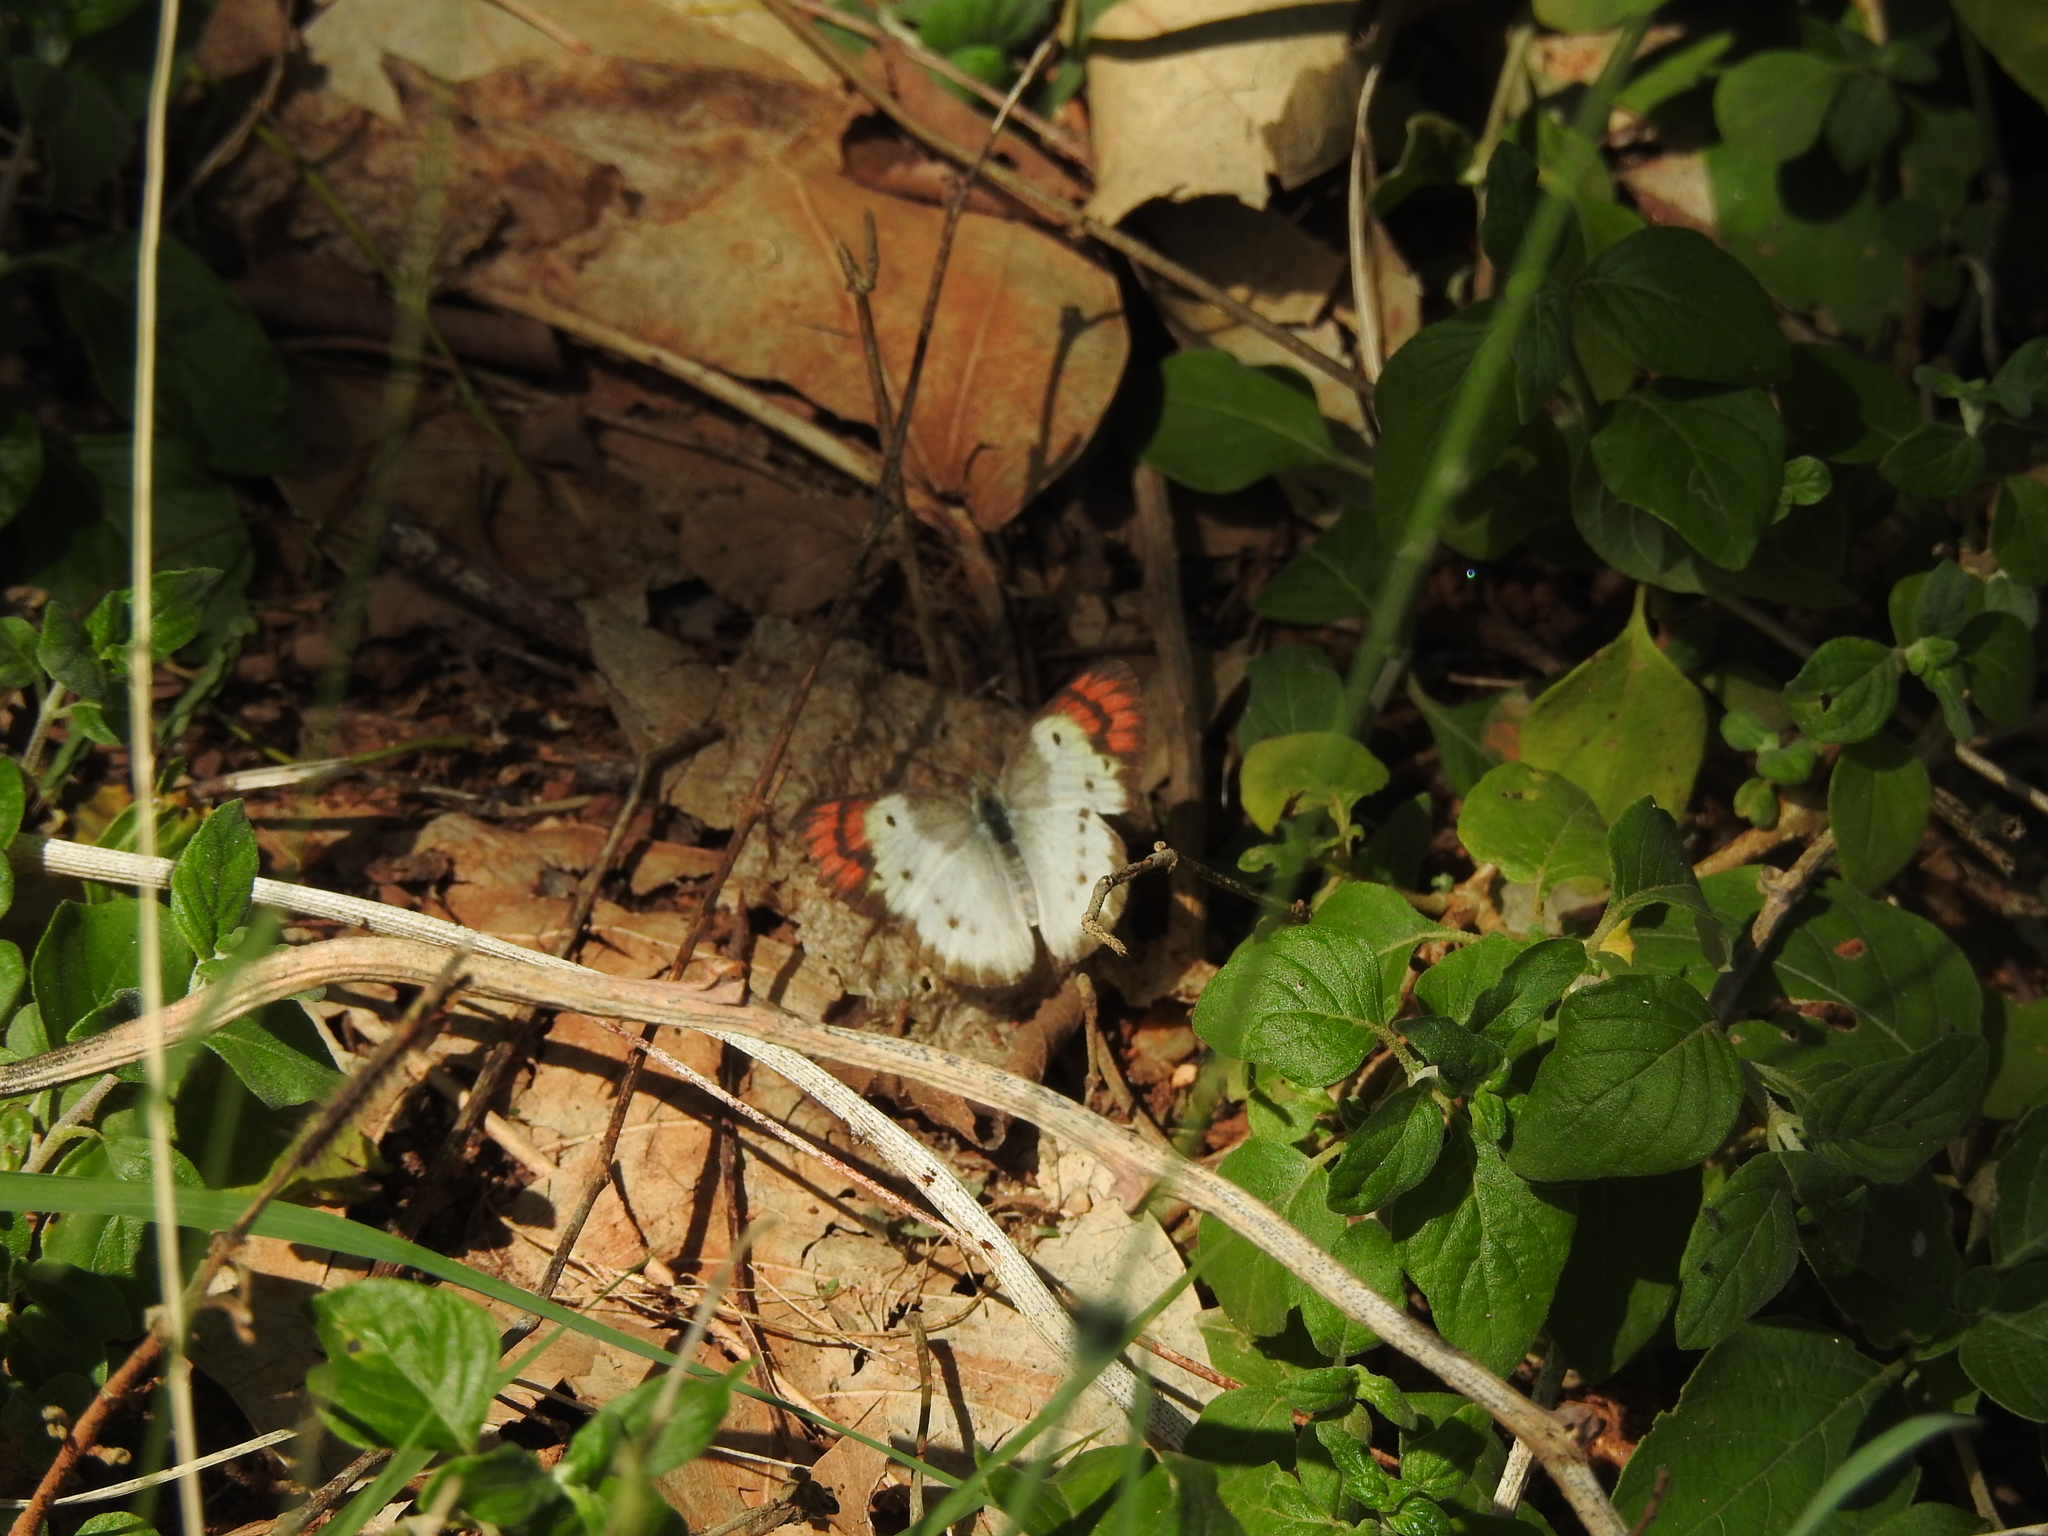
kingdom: Animalia
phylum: Arthropoda
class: Insecta
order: Lepidoptera
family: Pieridae
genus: Colotis
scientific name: Colotis danae
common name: Crimson tip
